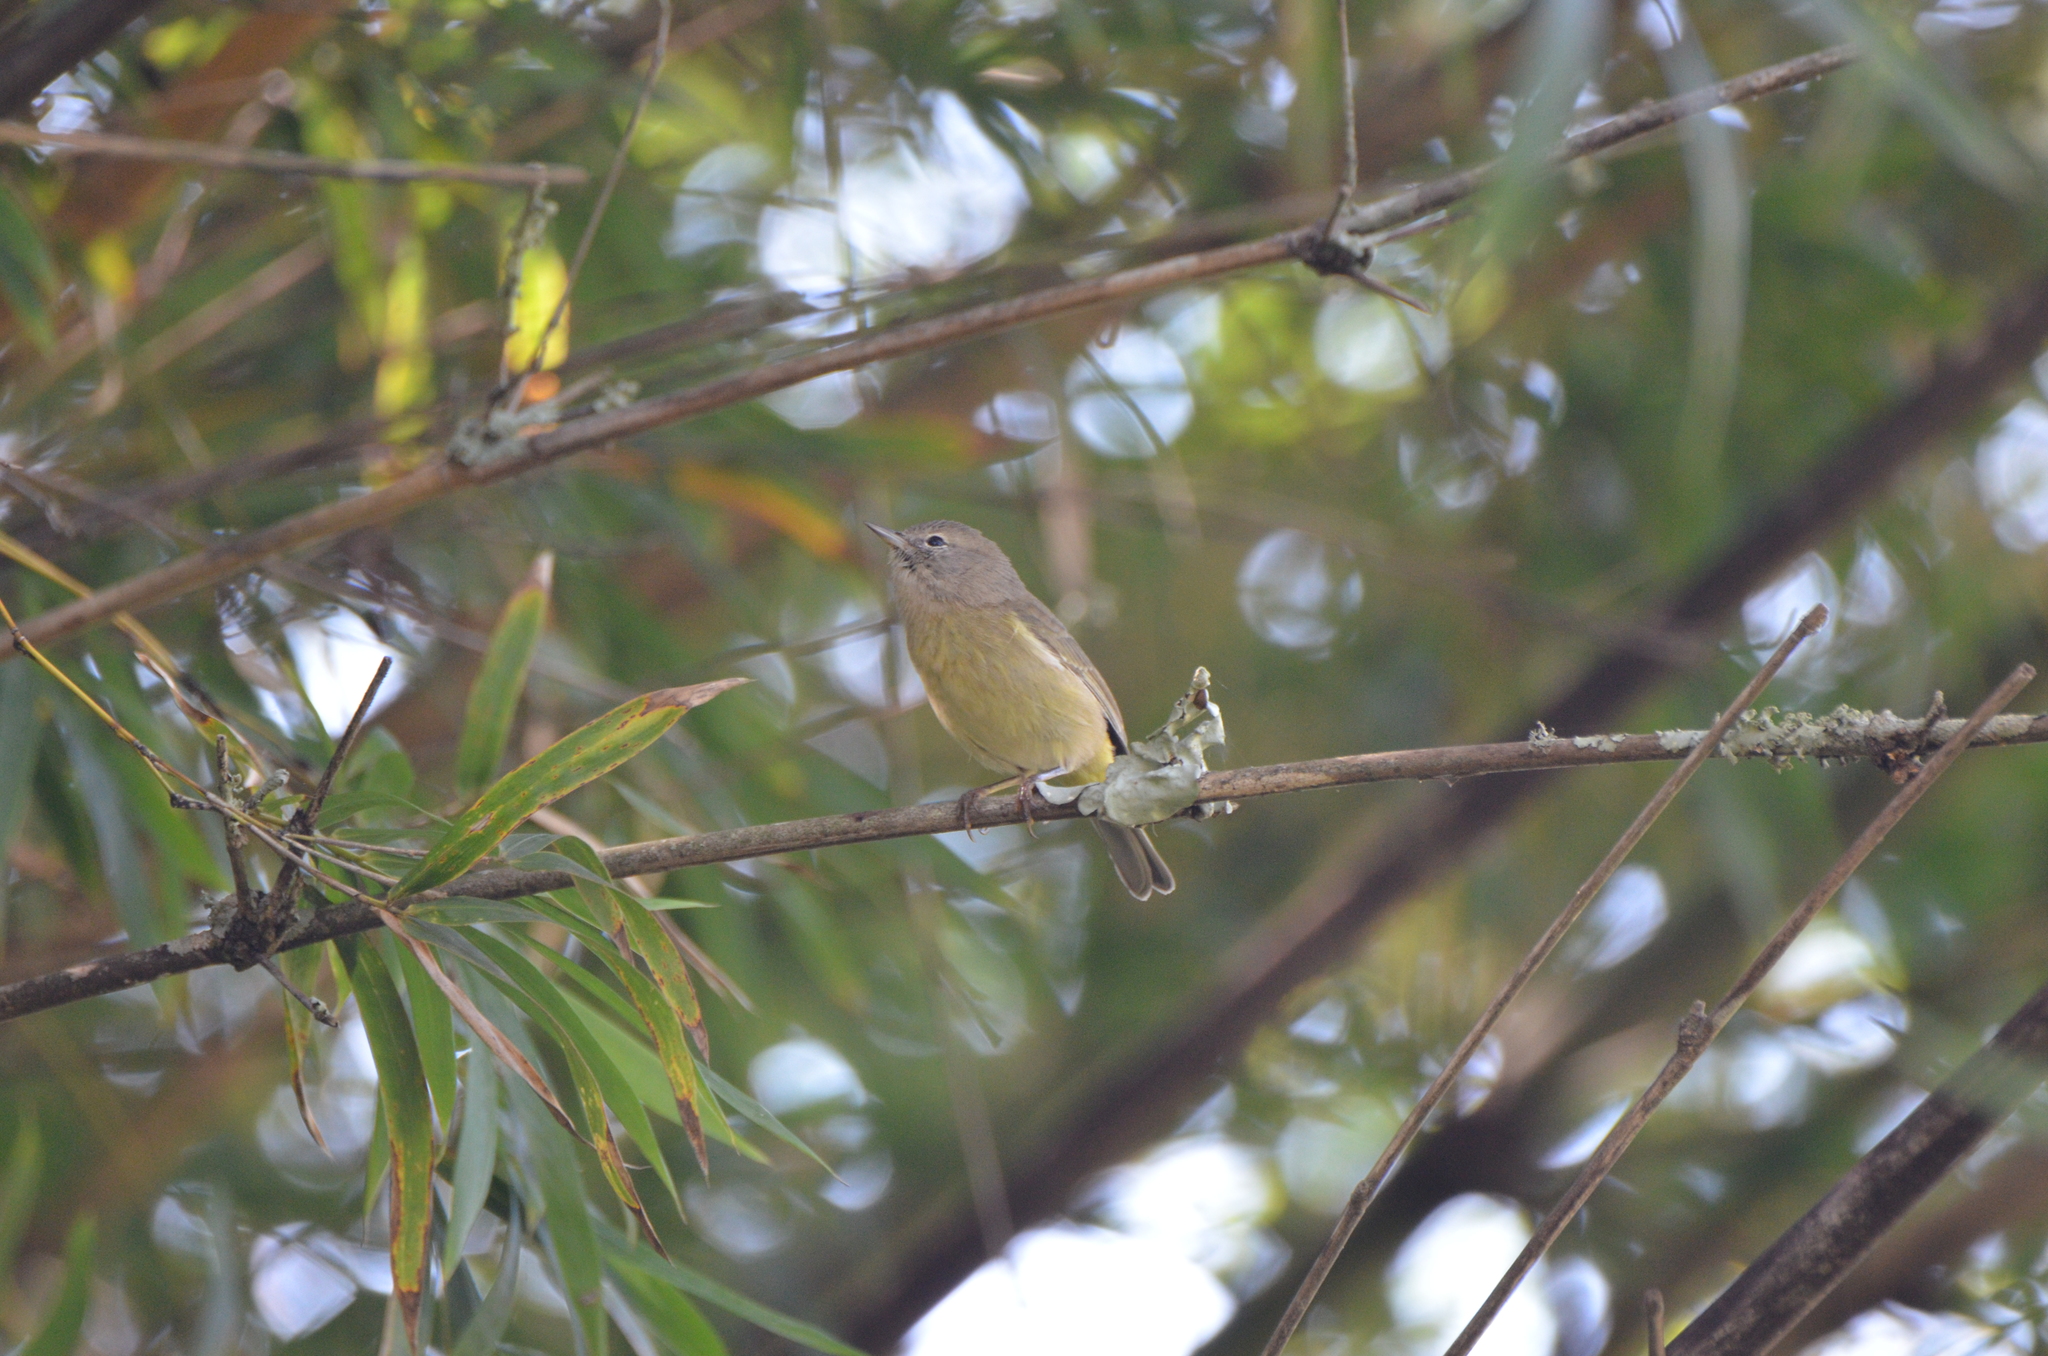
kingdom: Animalia
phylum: Chordata
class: Aves
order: Passeriformes
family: Parulidae
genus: Leiothlypis
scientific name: Leiothlypis celata
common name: Orange-crowned warbler
